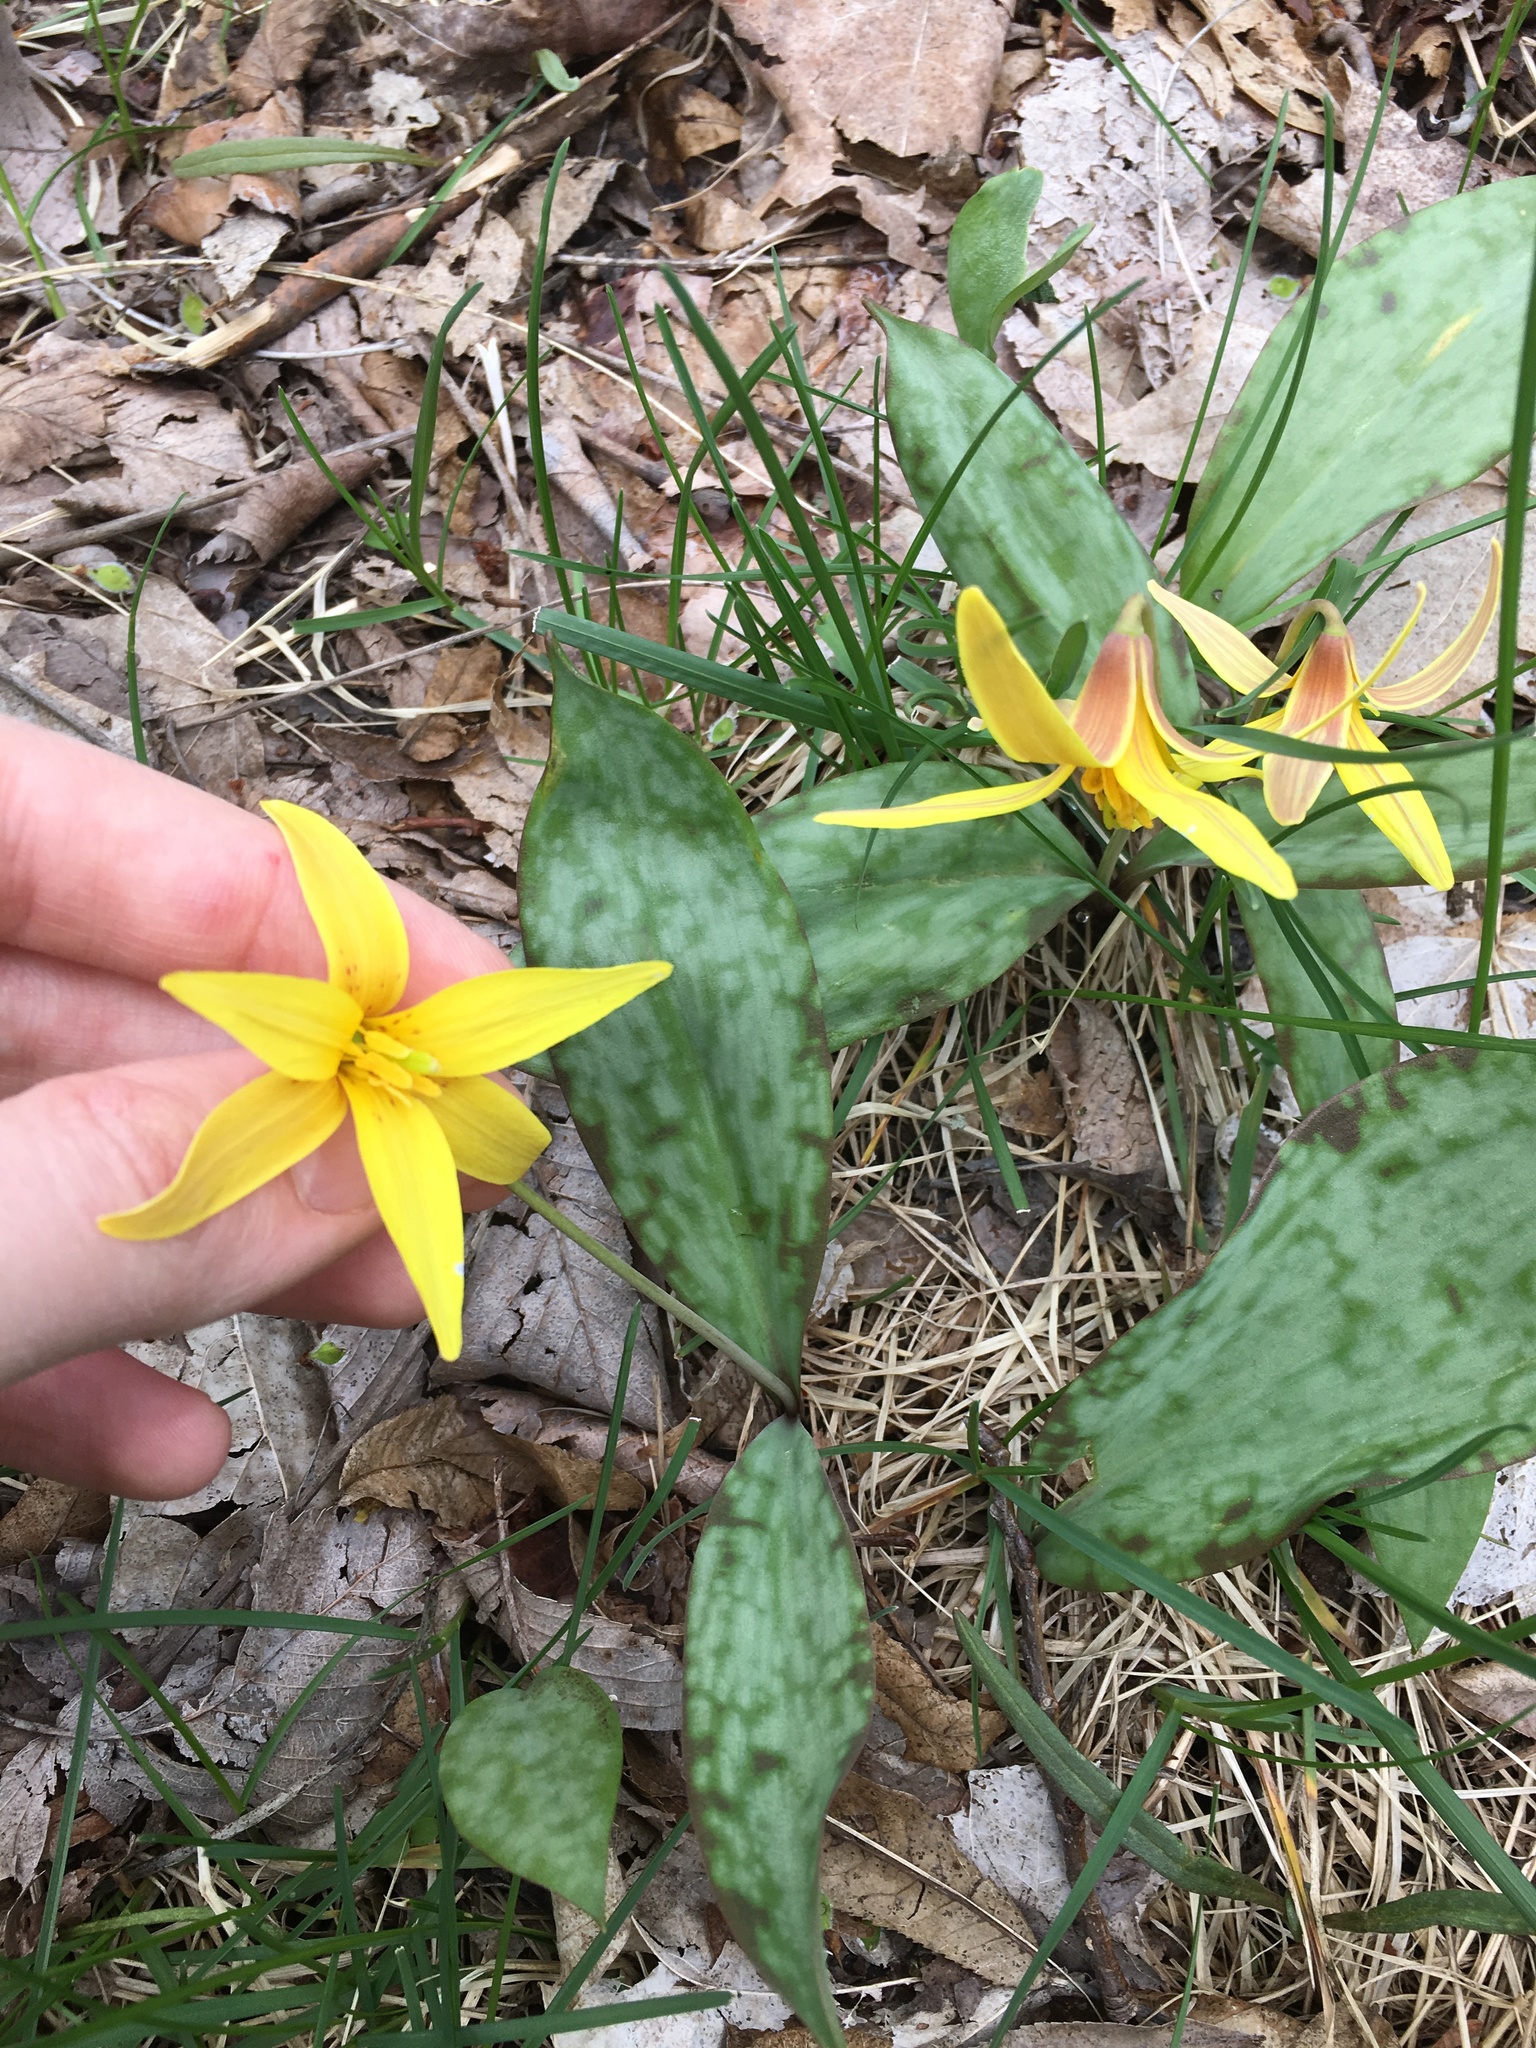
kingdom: Plantae
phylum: Tracheophyta
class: Liliopsida
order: Liliales
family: Liliaceae
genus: Erythronium
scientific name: Erythronium americanum
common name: Yellow adder's-tongue
